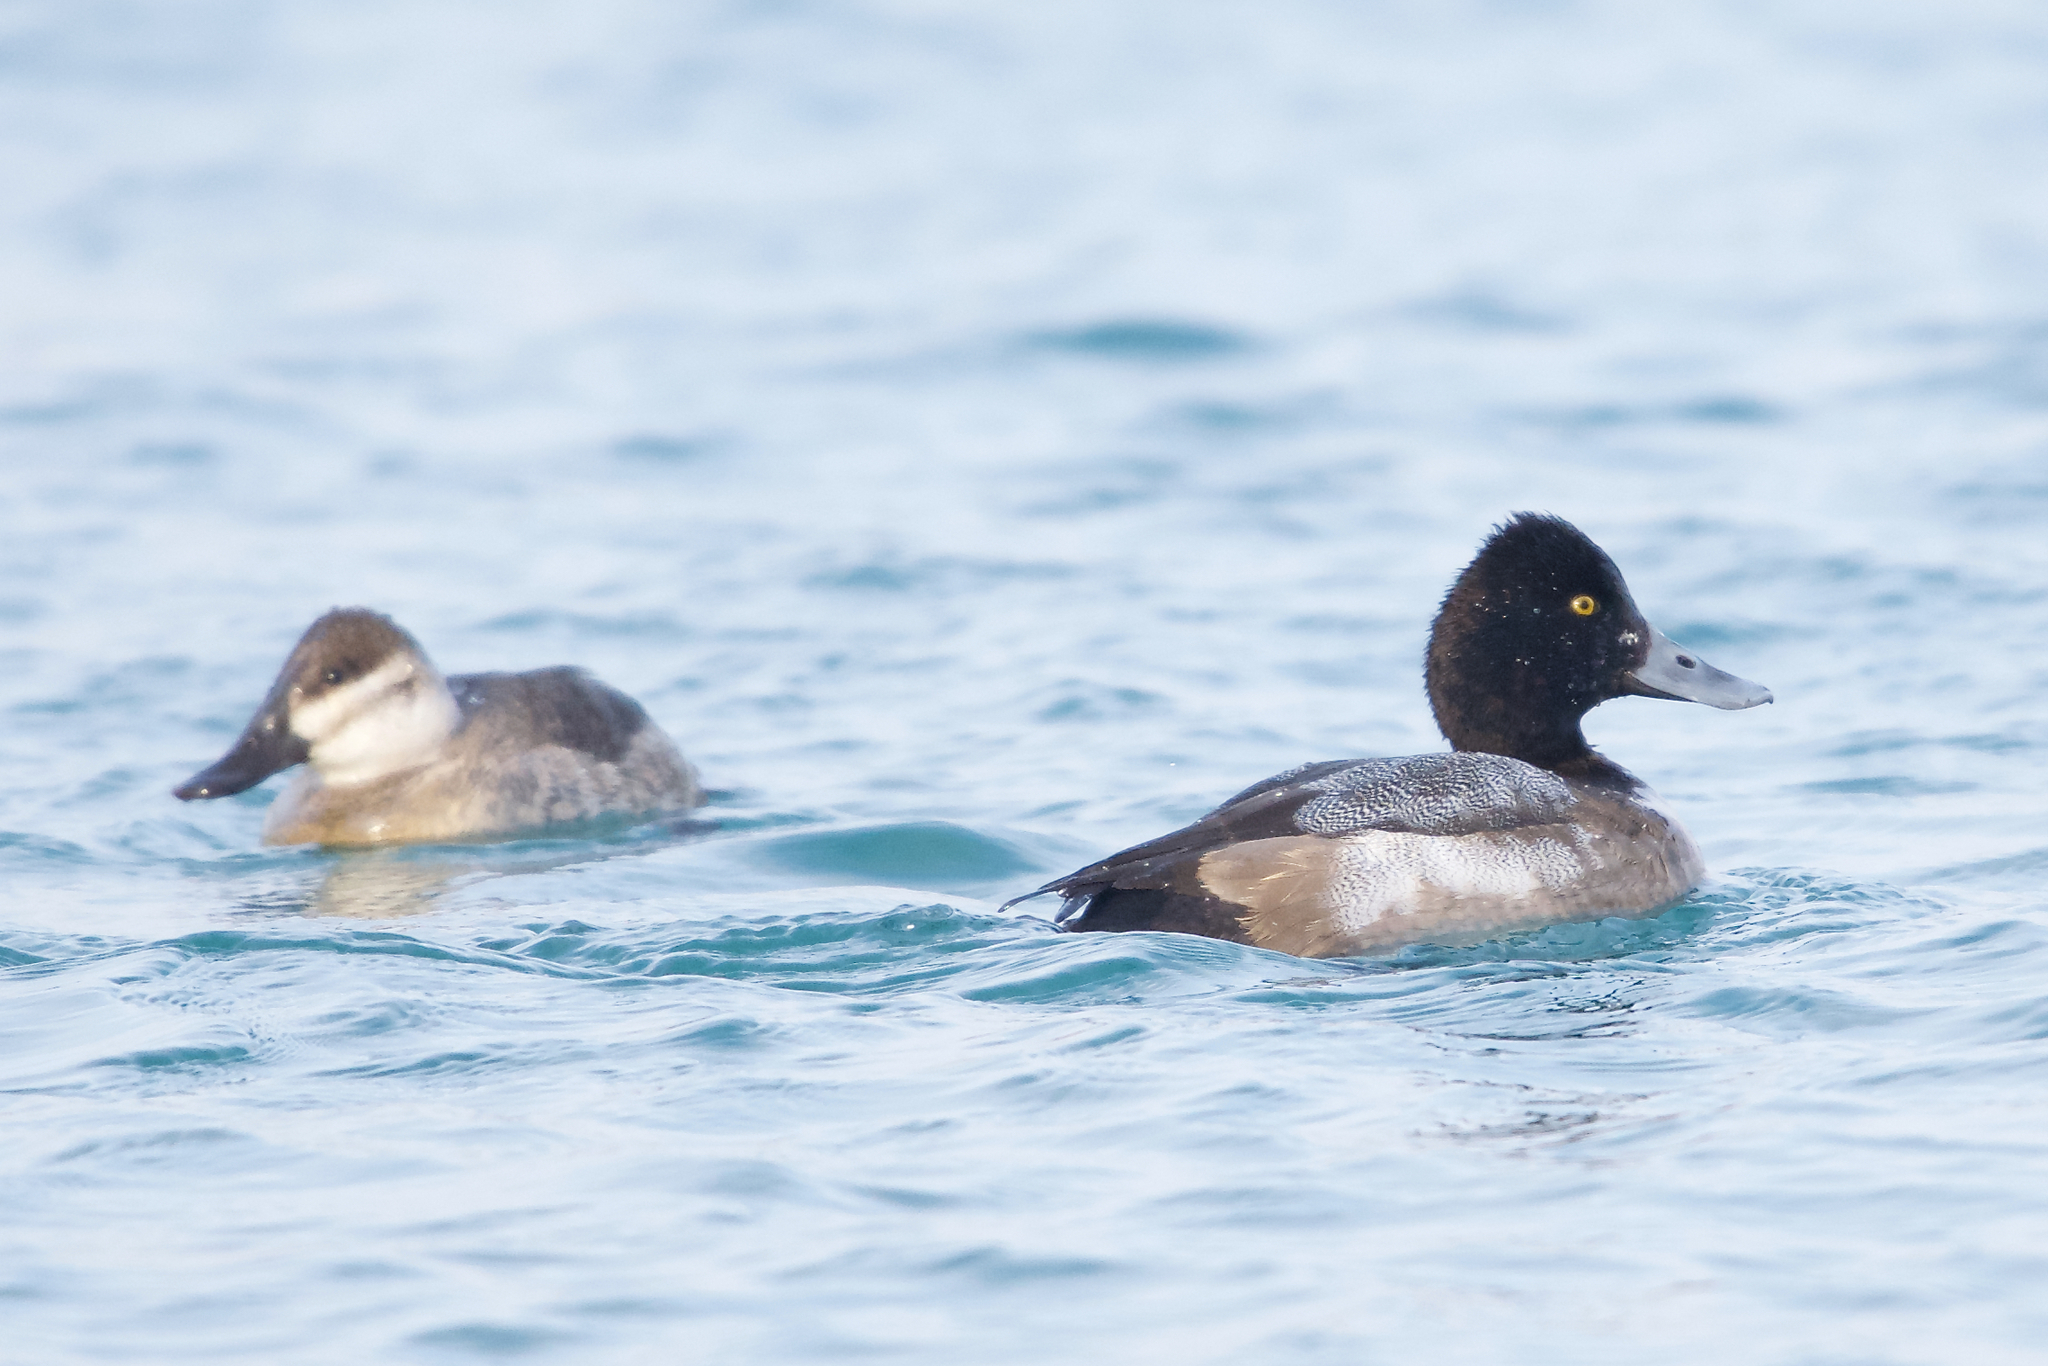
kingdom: Animalia
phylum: Chordata
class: Aves
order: Anseriformes
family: Anatidae
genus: Oxyura
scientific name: Oxyura jamaicensis
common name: Ruddy duck
